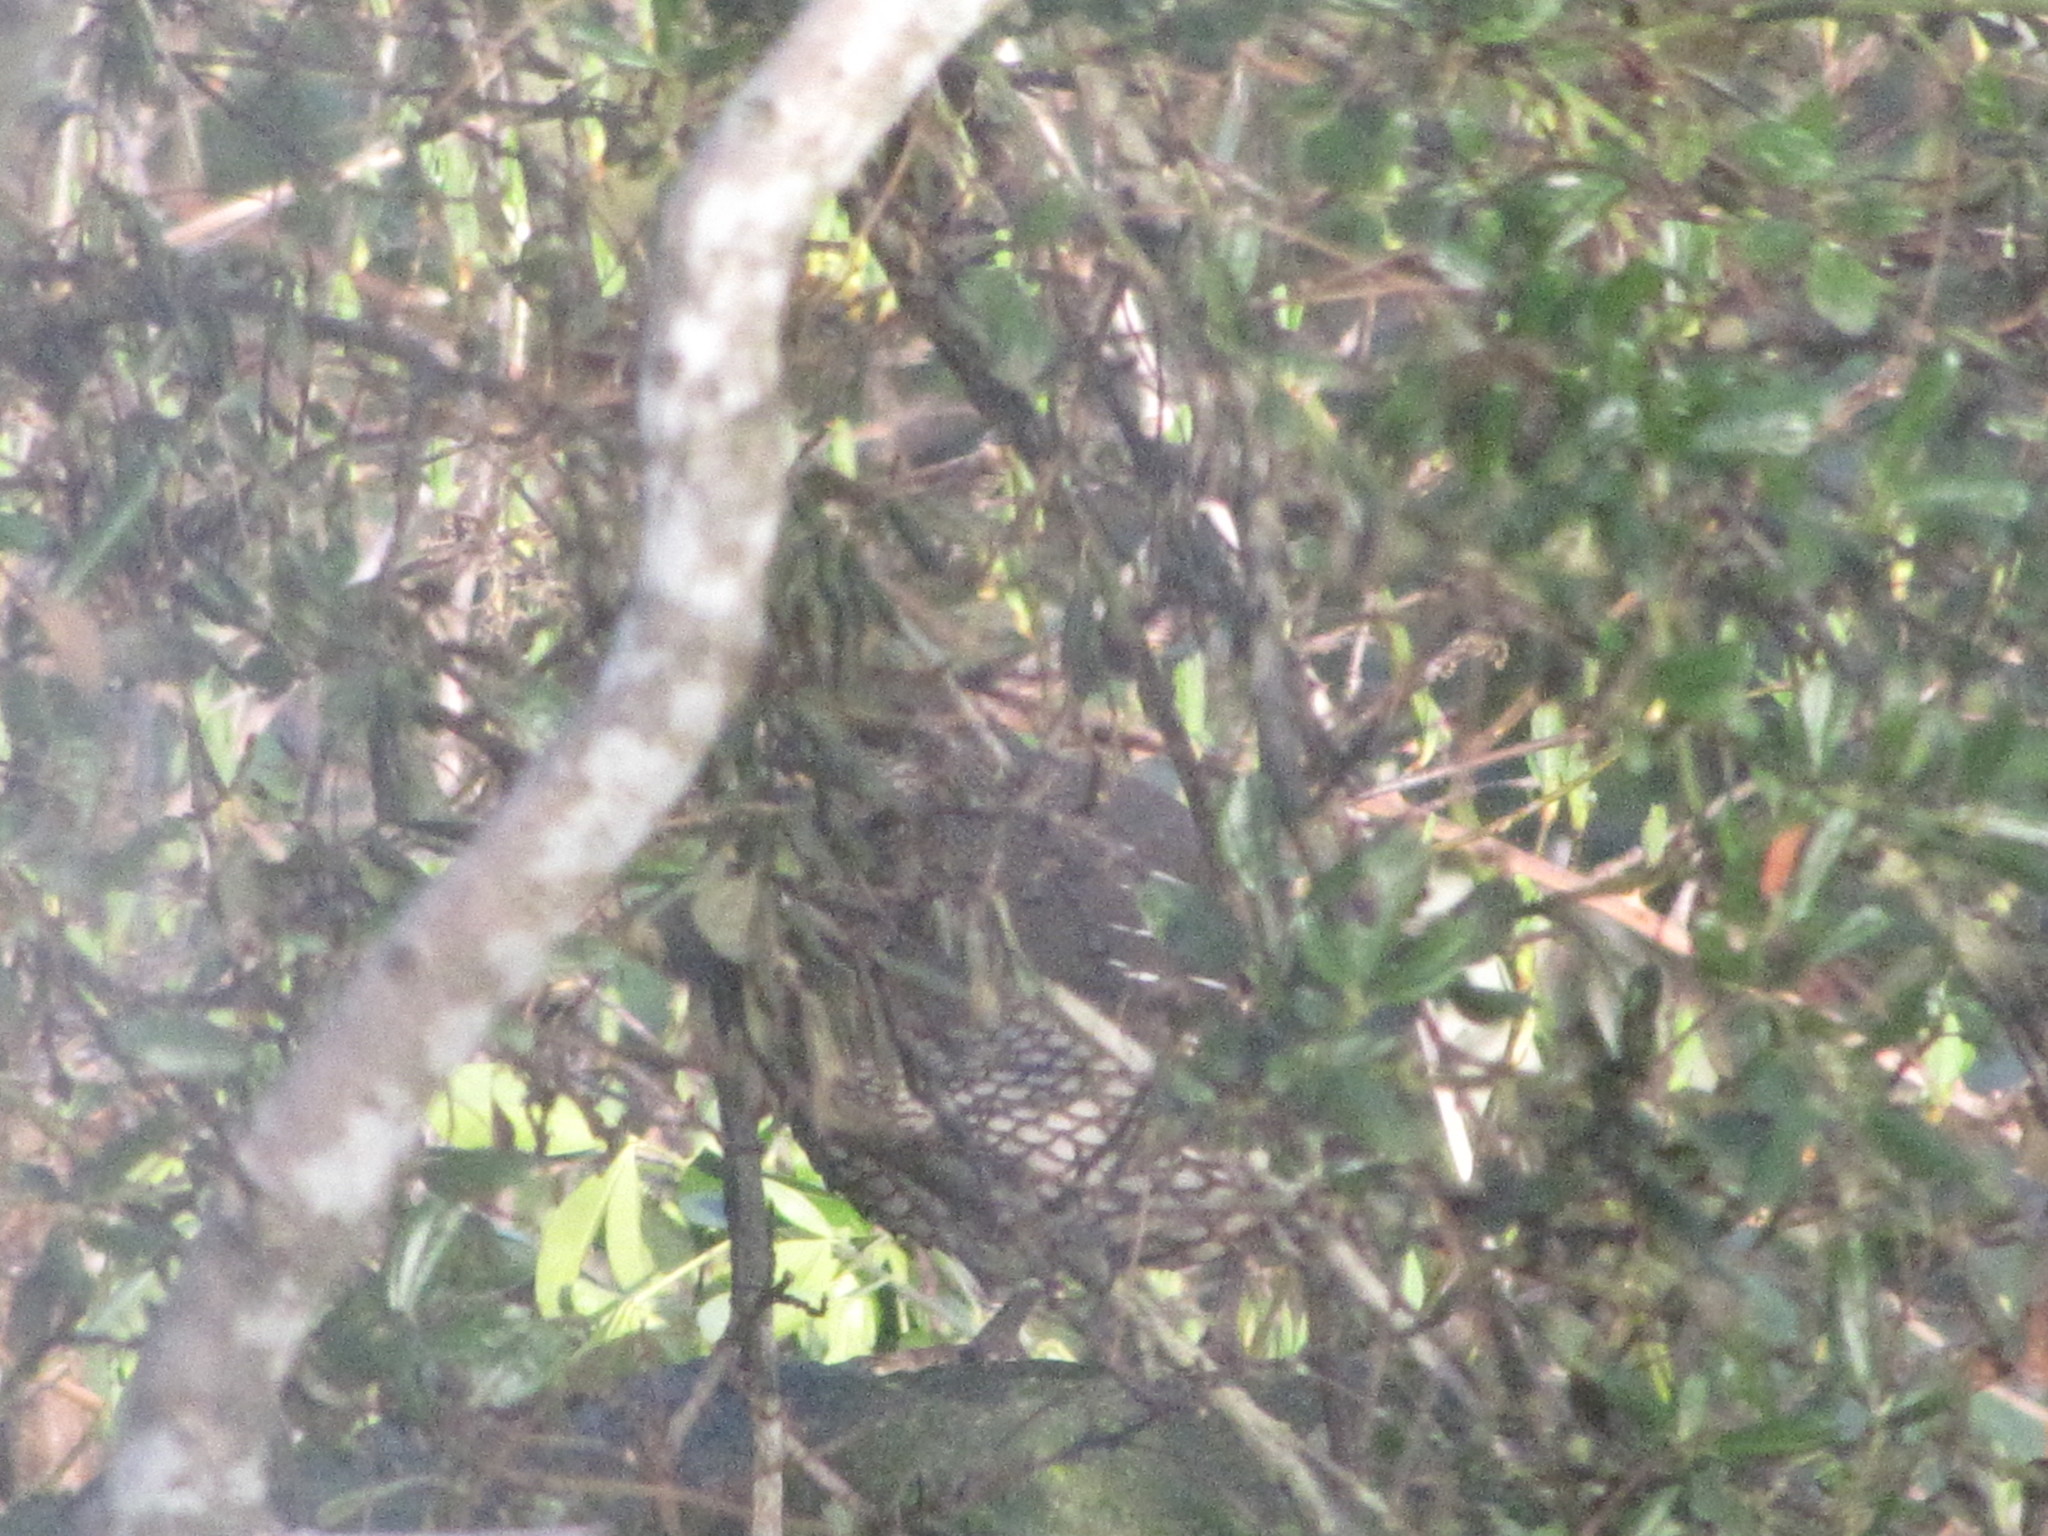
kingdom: Animalia
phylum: Chordata
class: Aves
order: Galliformes
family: Odontophoridae
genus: Callipepla
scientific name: Callipepla californica
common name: California quail
